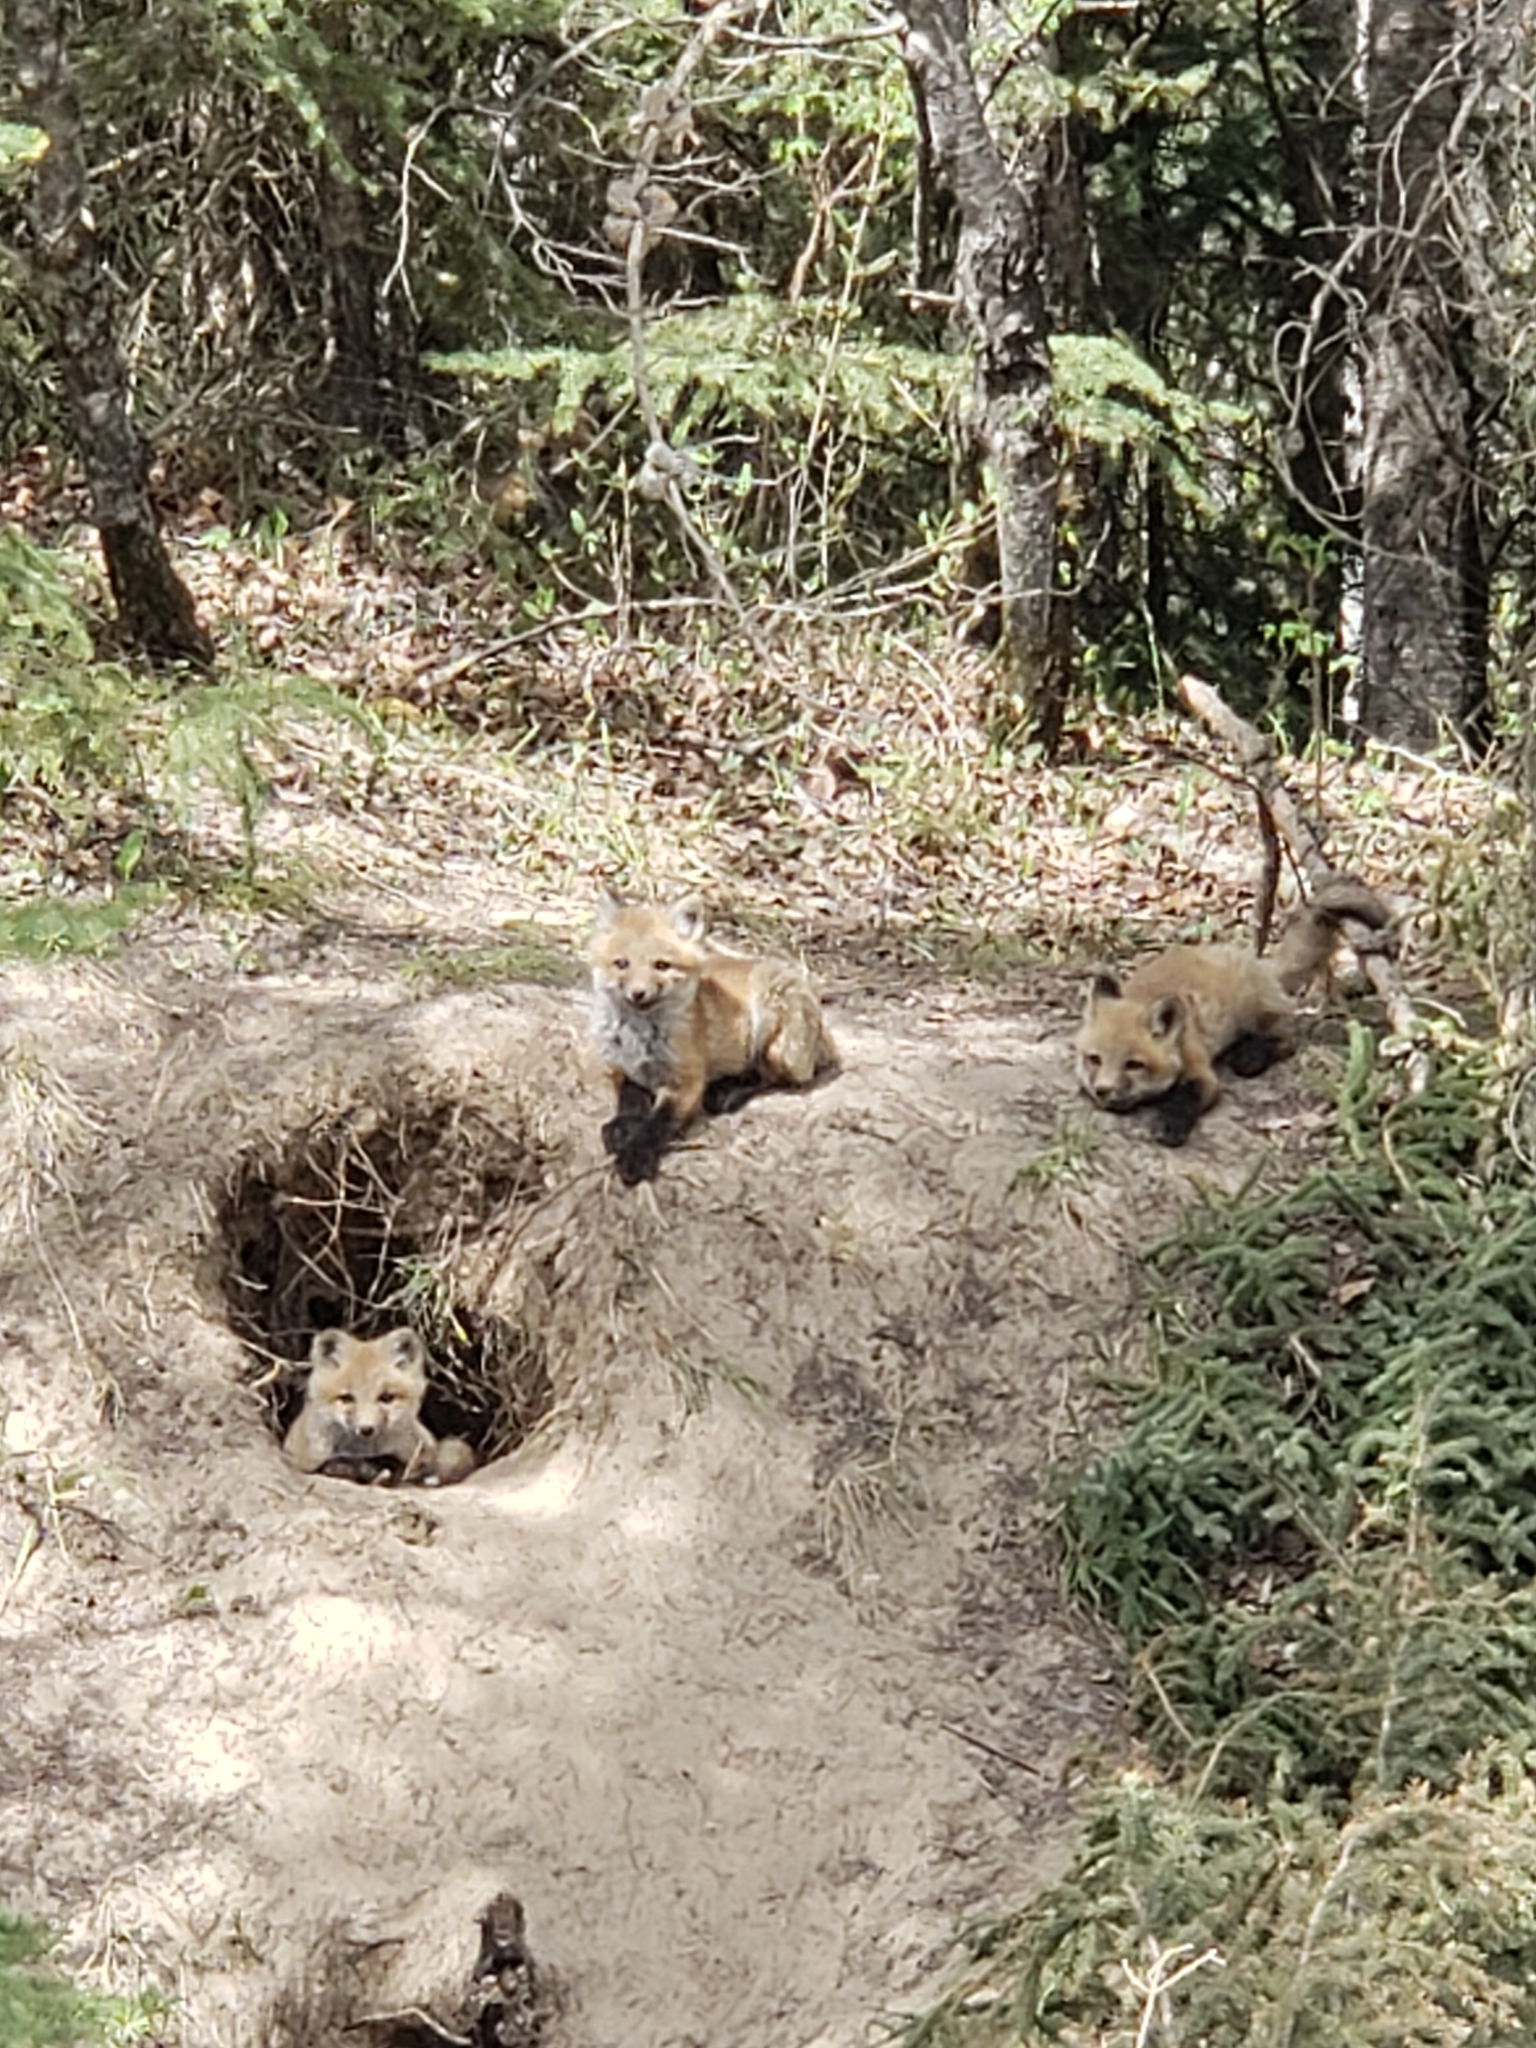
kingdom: Animalia
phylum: Chordata
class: Mammalia
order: Carnivora
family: Canidae
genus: Vulpes
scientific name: Vulpes vulpes
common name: Red fox
